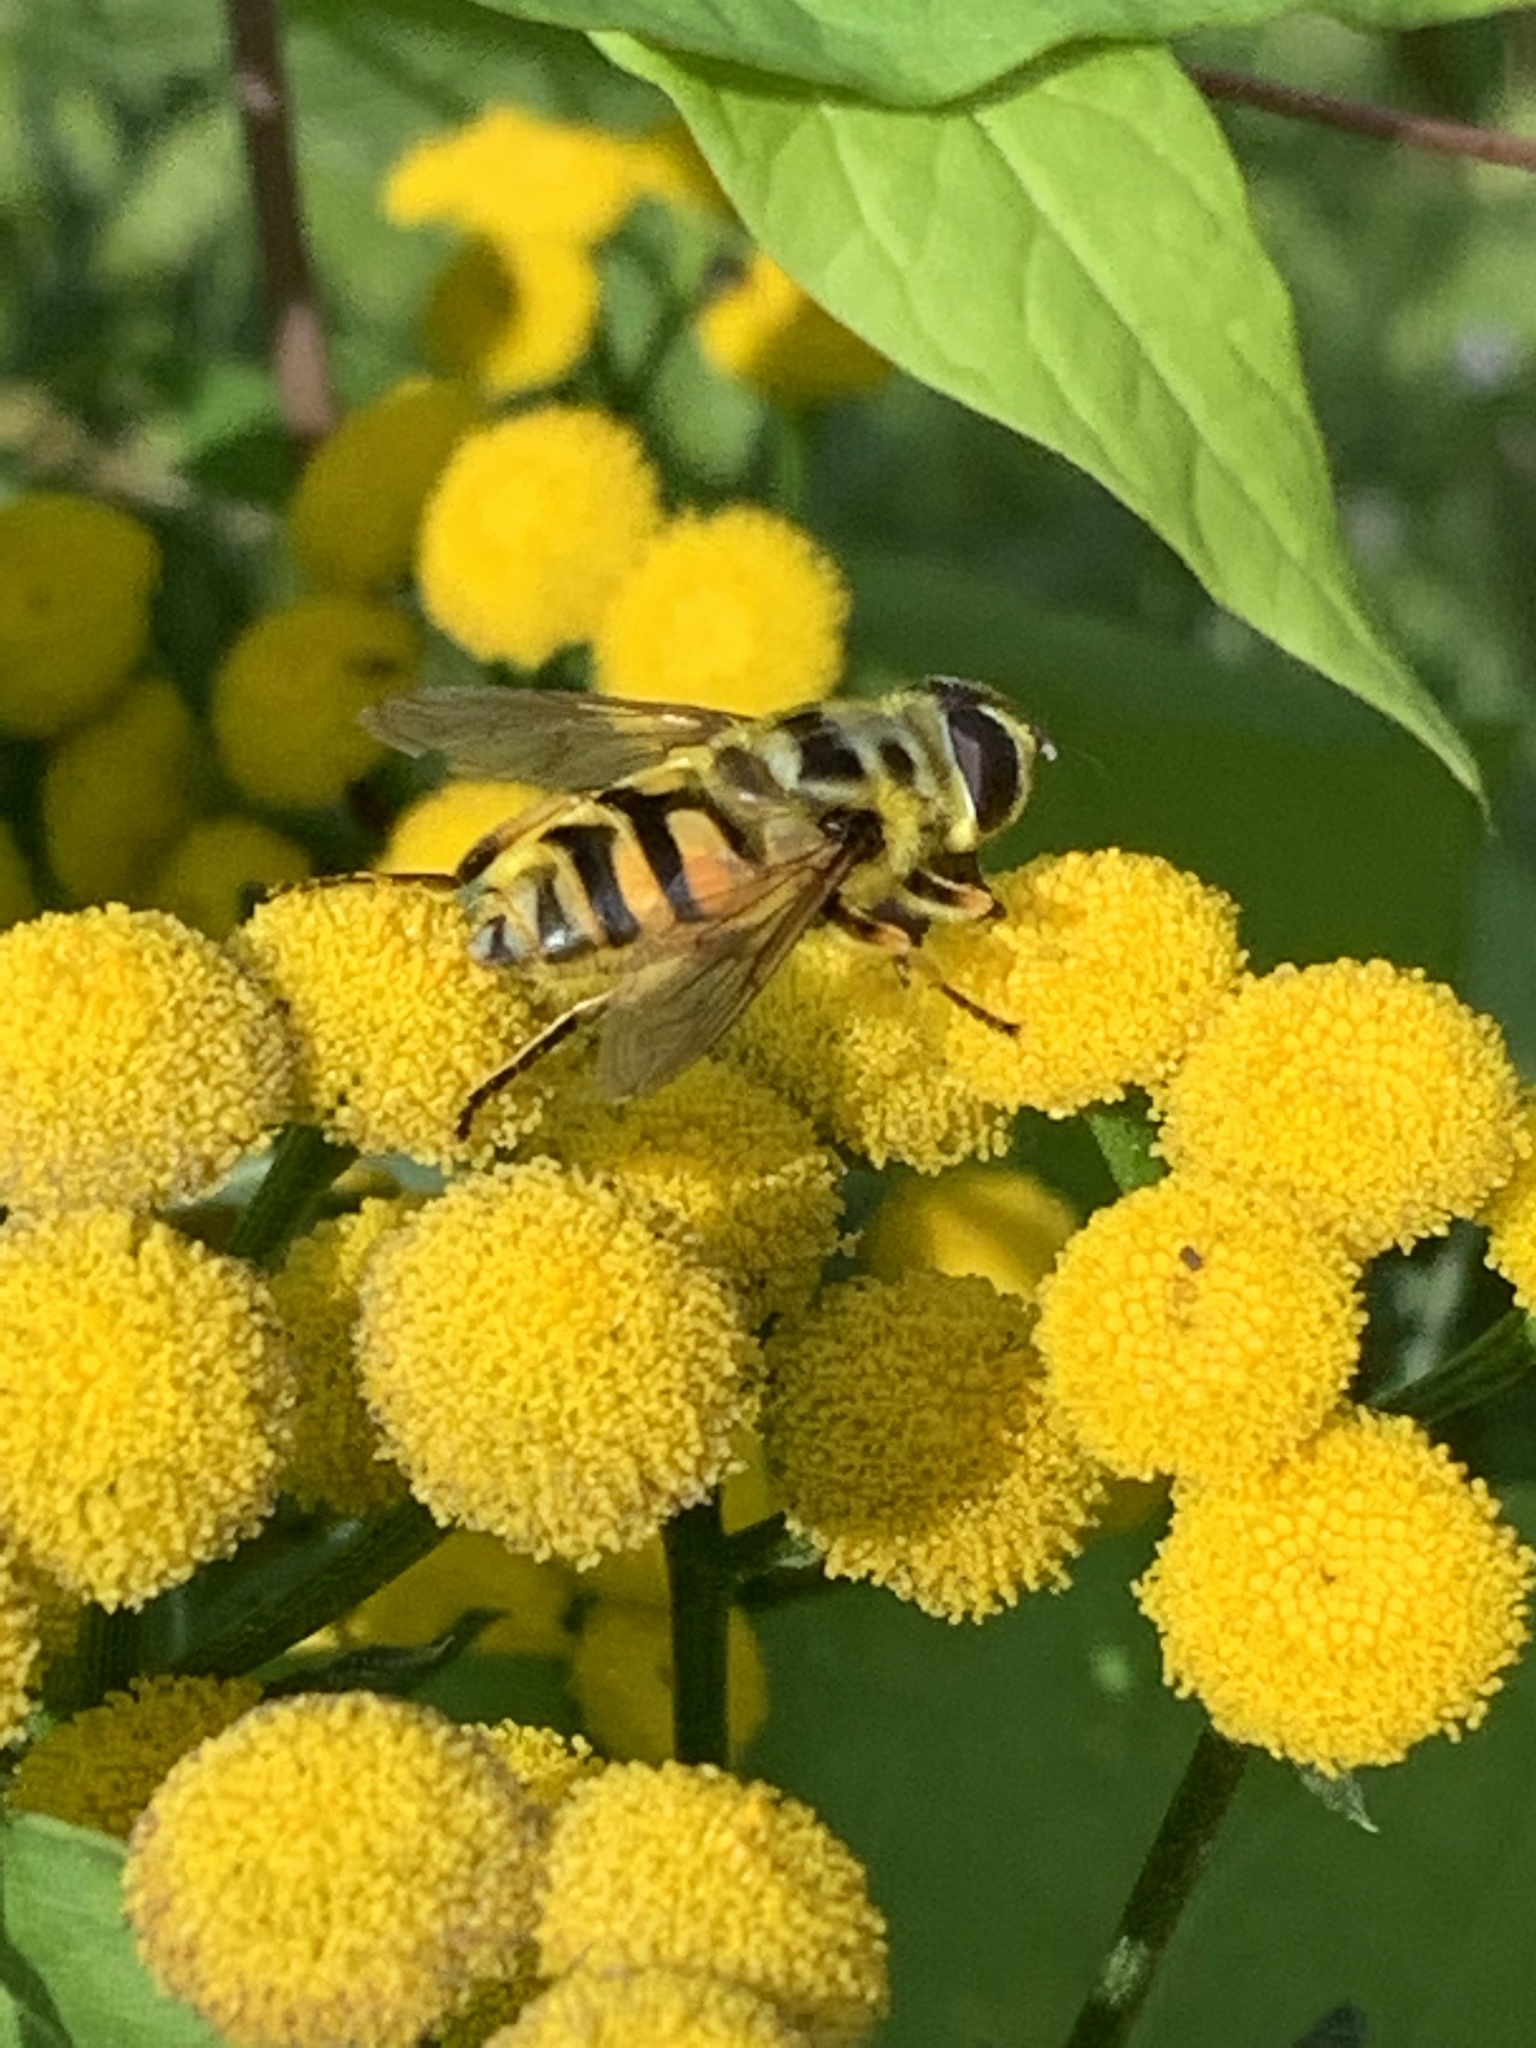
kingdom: Animalia
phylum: Arthropoda
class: Insecta
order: Diptera
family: Syrphidae
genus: Myathropa
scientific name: Myathropa florea
